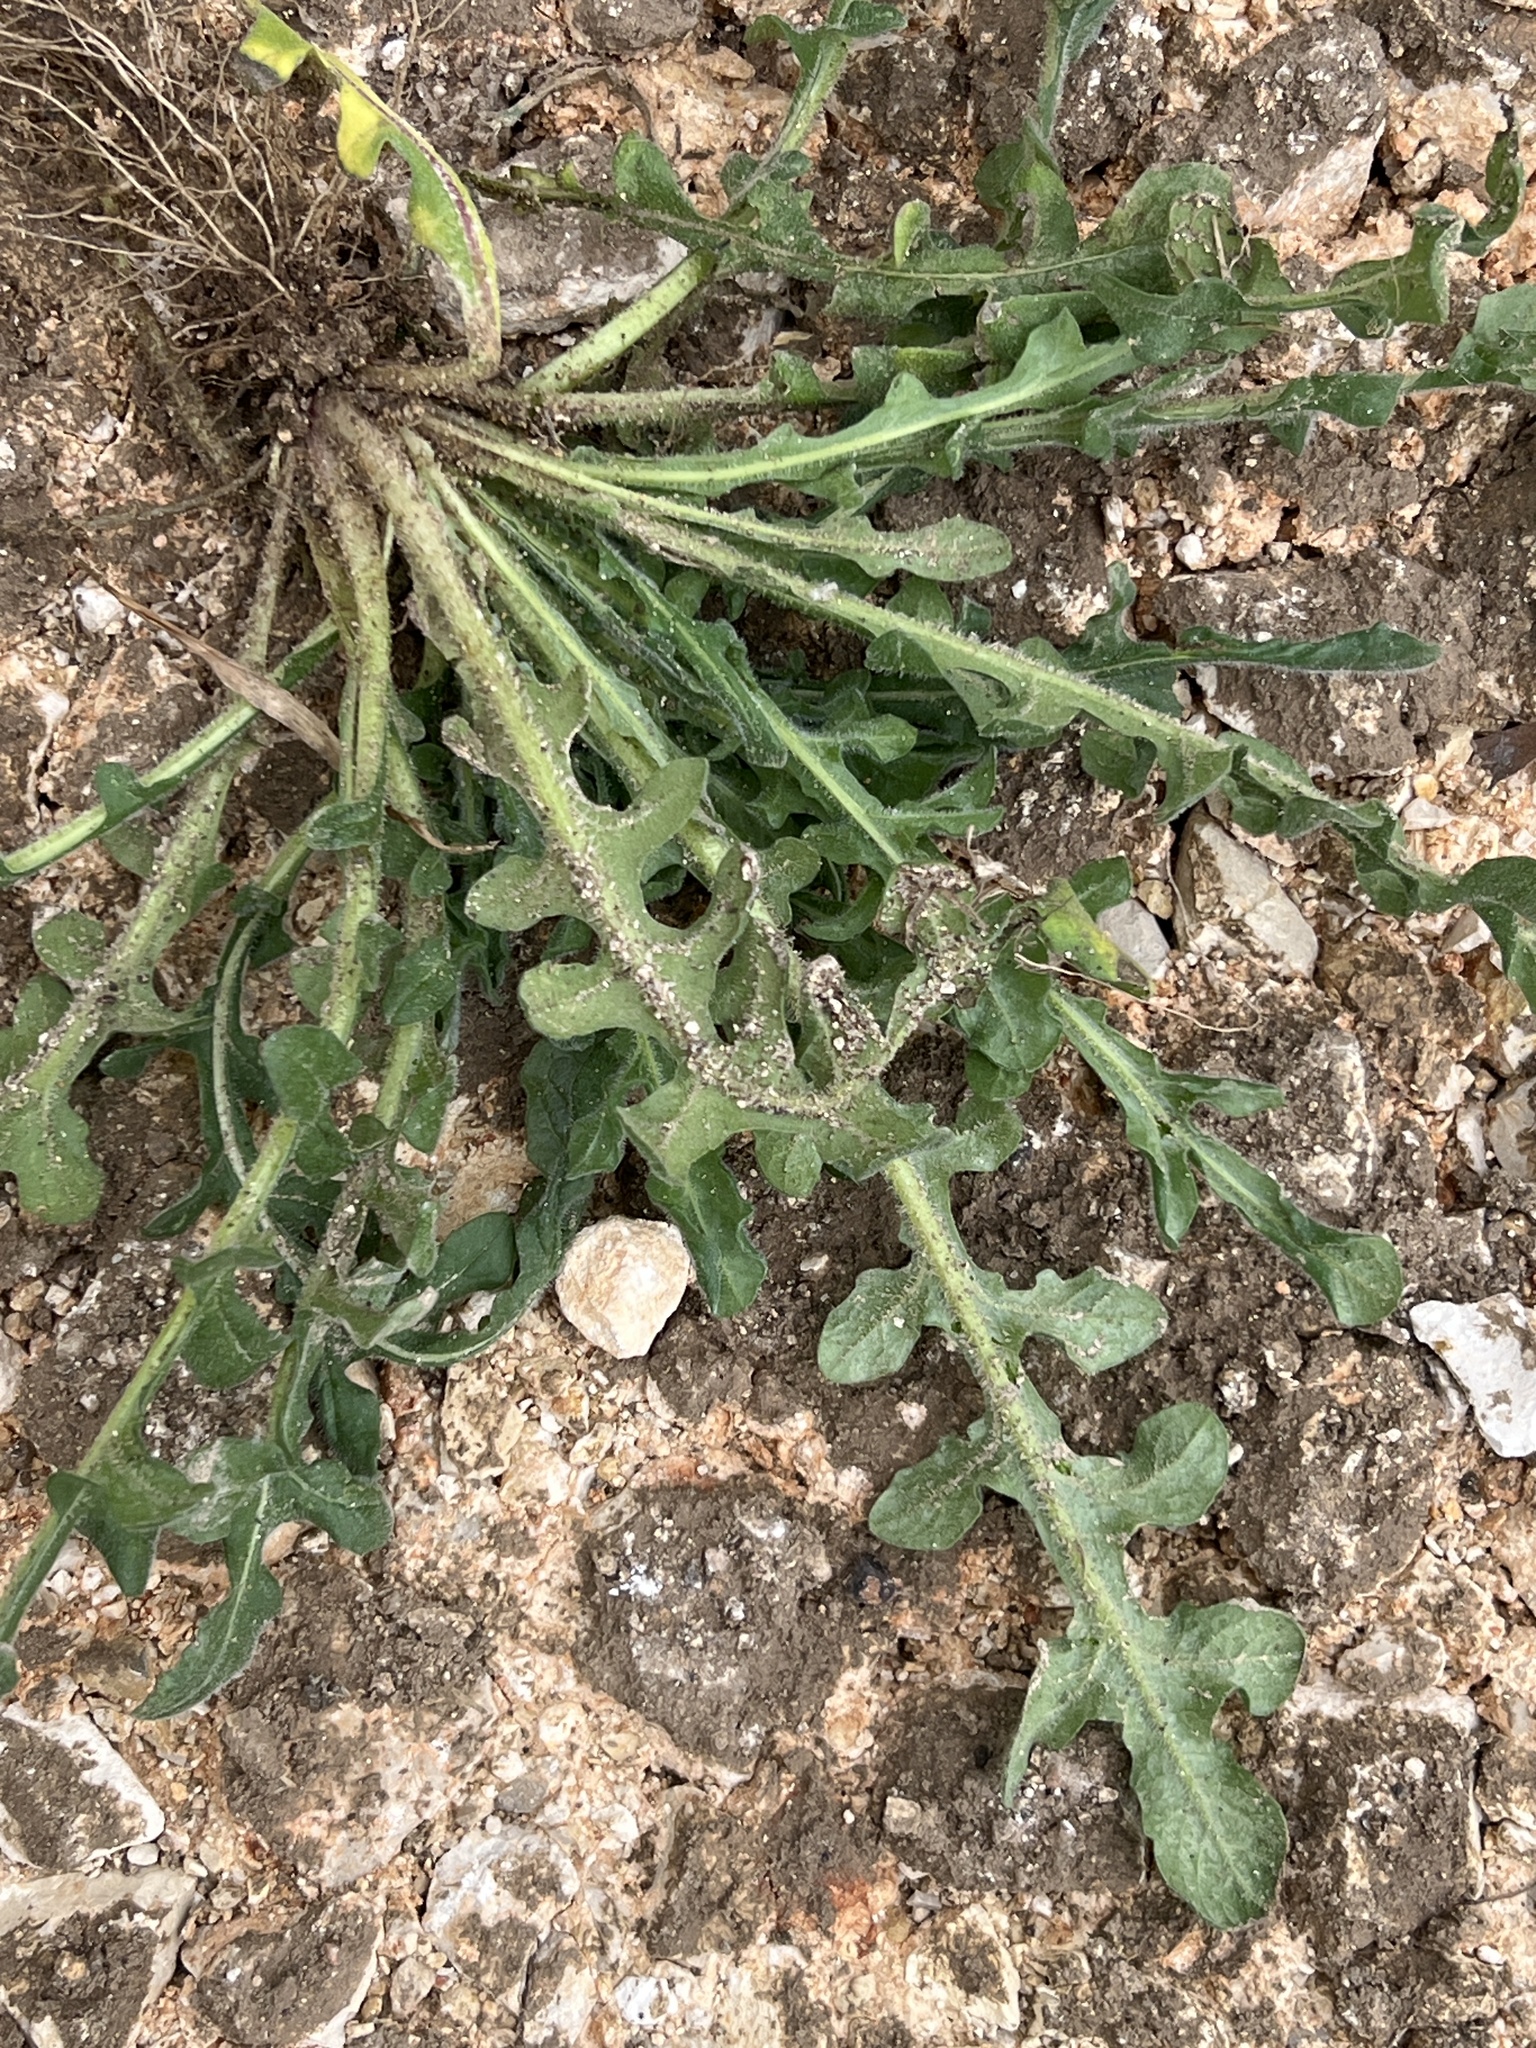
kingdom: Plantae
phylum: Tracheophyta
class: Magnoliopsida
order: Asterales
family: Asteraceae
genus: Centaurea
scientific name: Centaurea melitensis
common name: Maltese star-thistle
